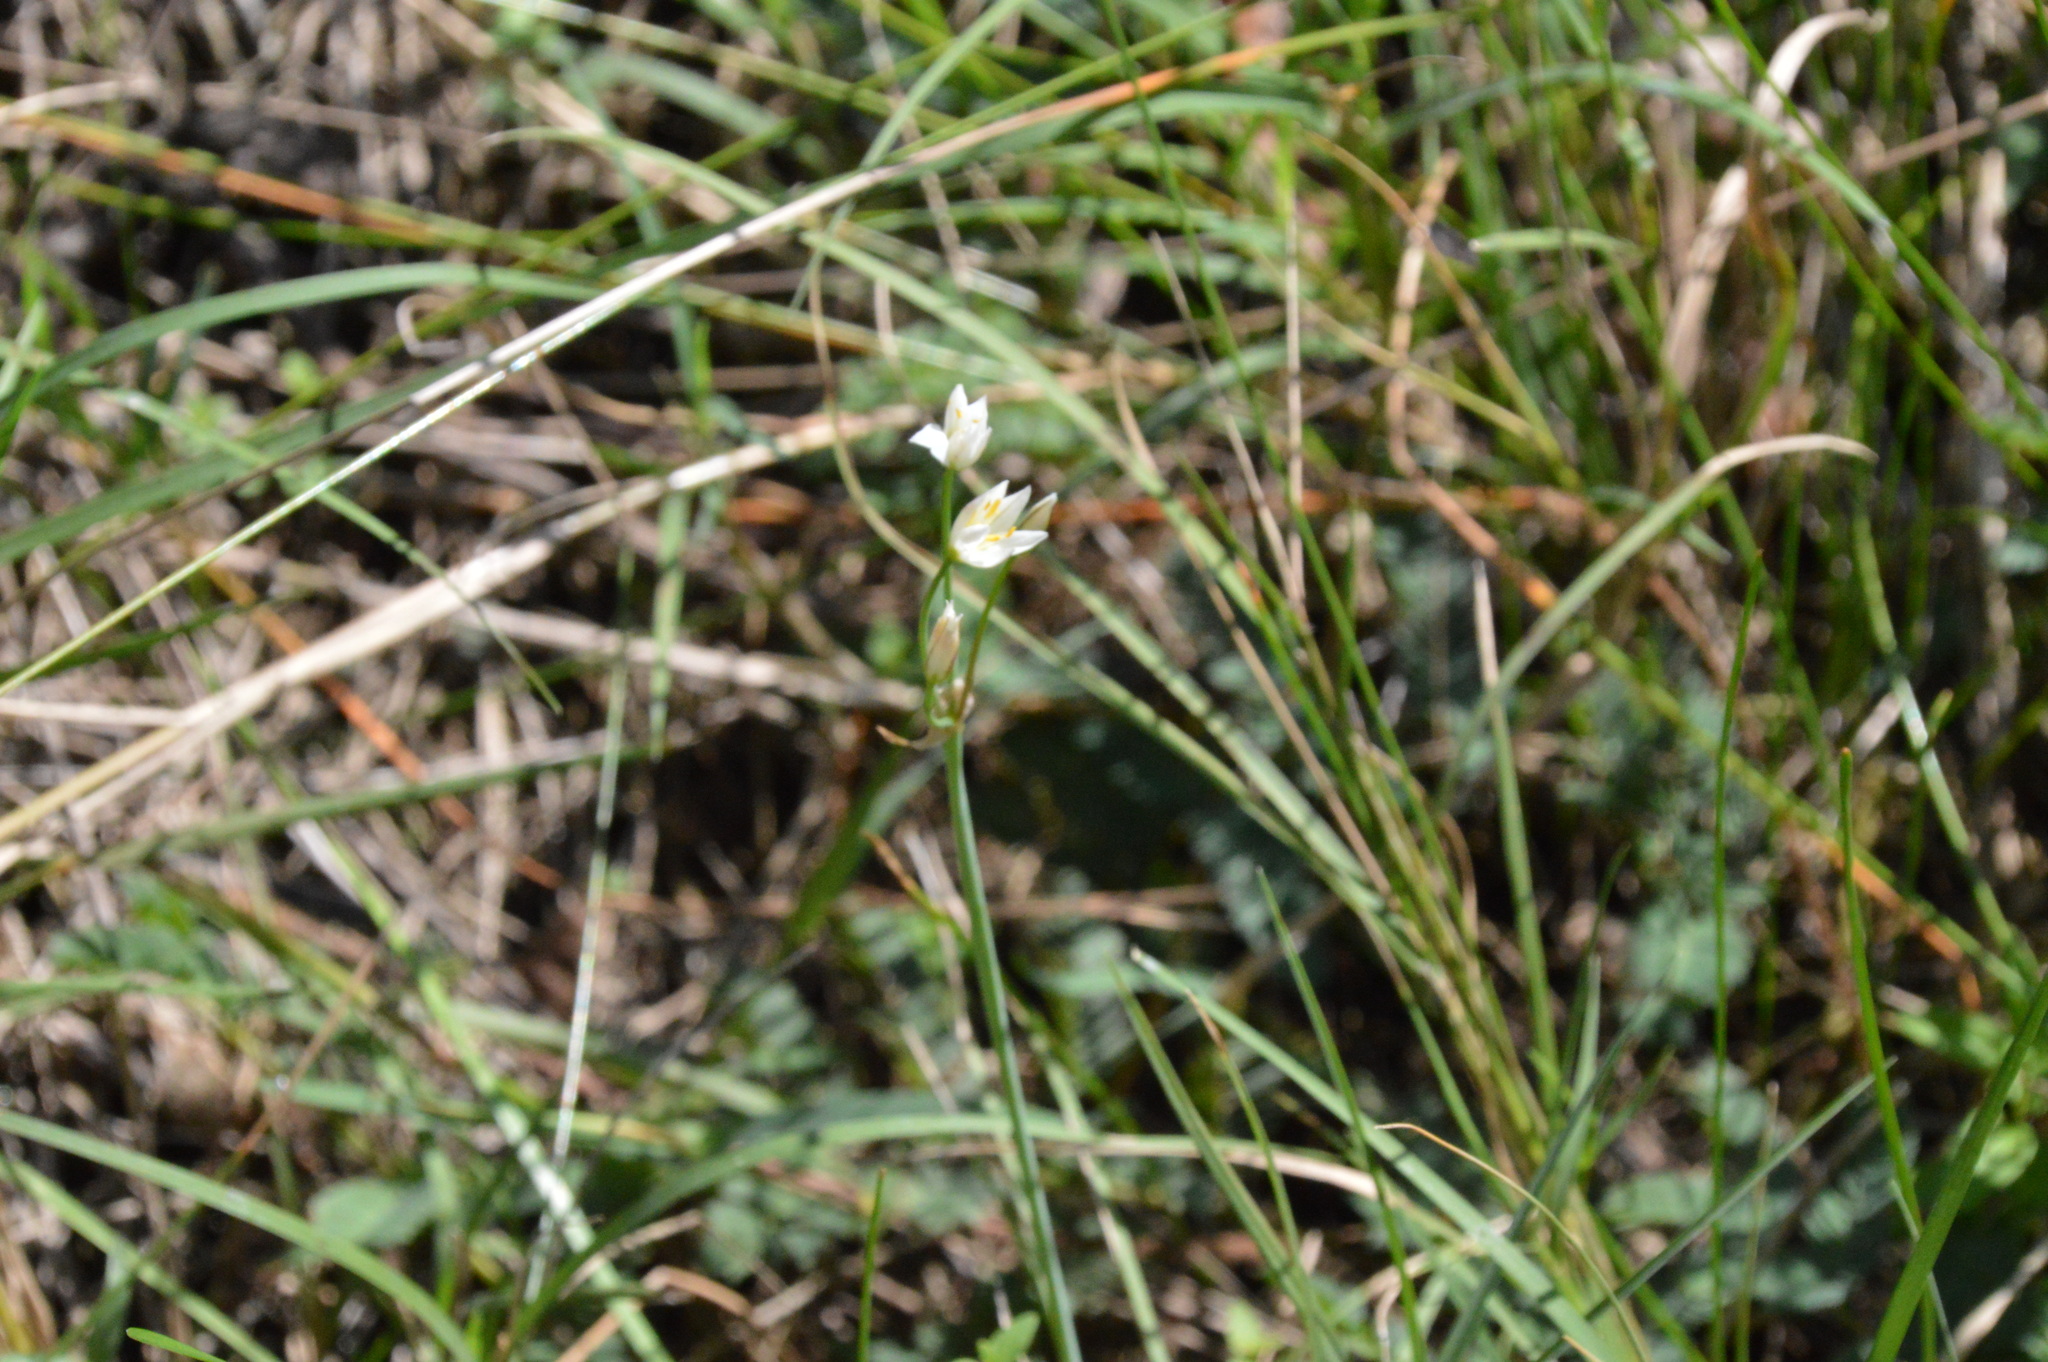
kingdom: Plantae
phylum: Tracheophyta
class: Liliopsida
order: Asparagales
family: Amaryllidaceae
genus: Nothoscordum
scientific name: Nothoscordum bivalve
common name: Crow-poison
